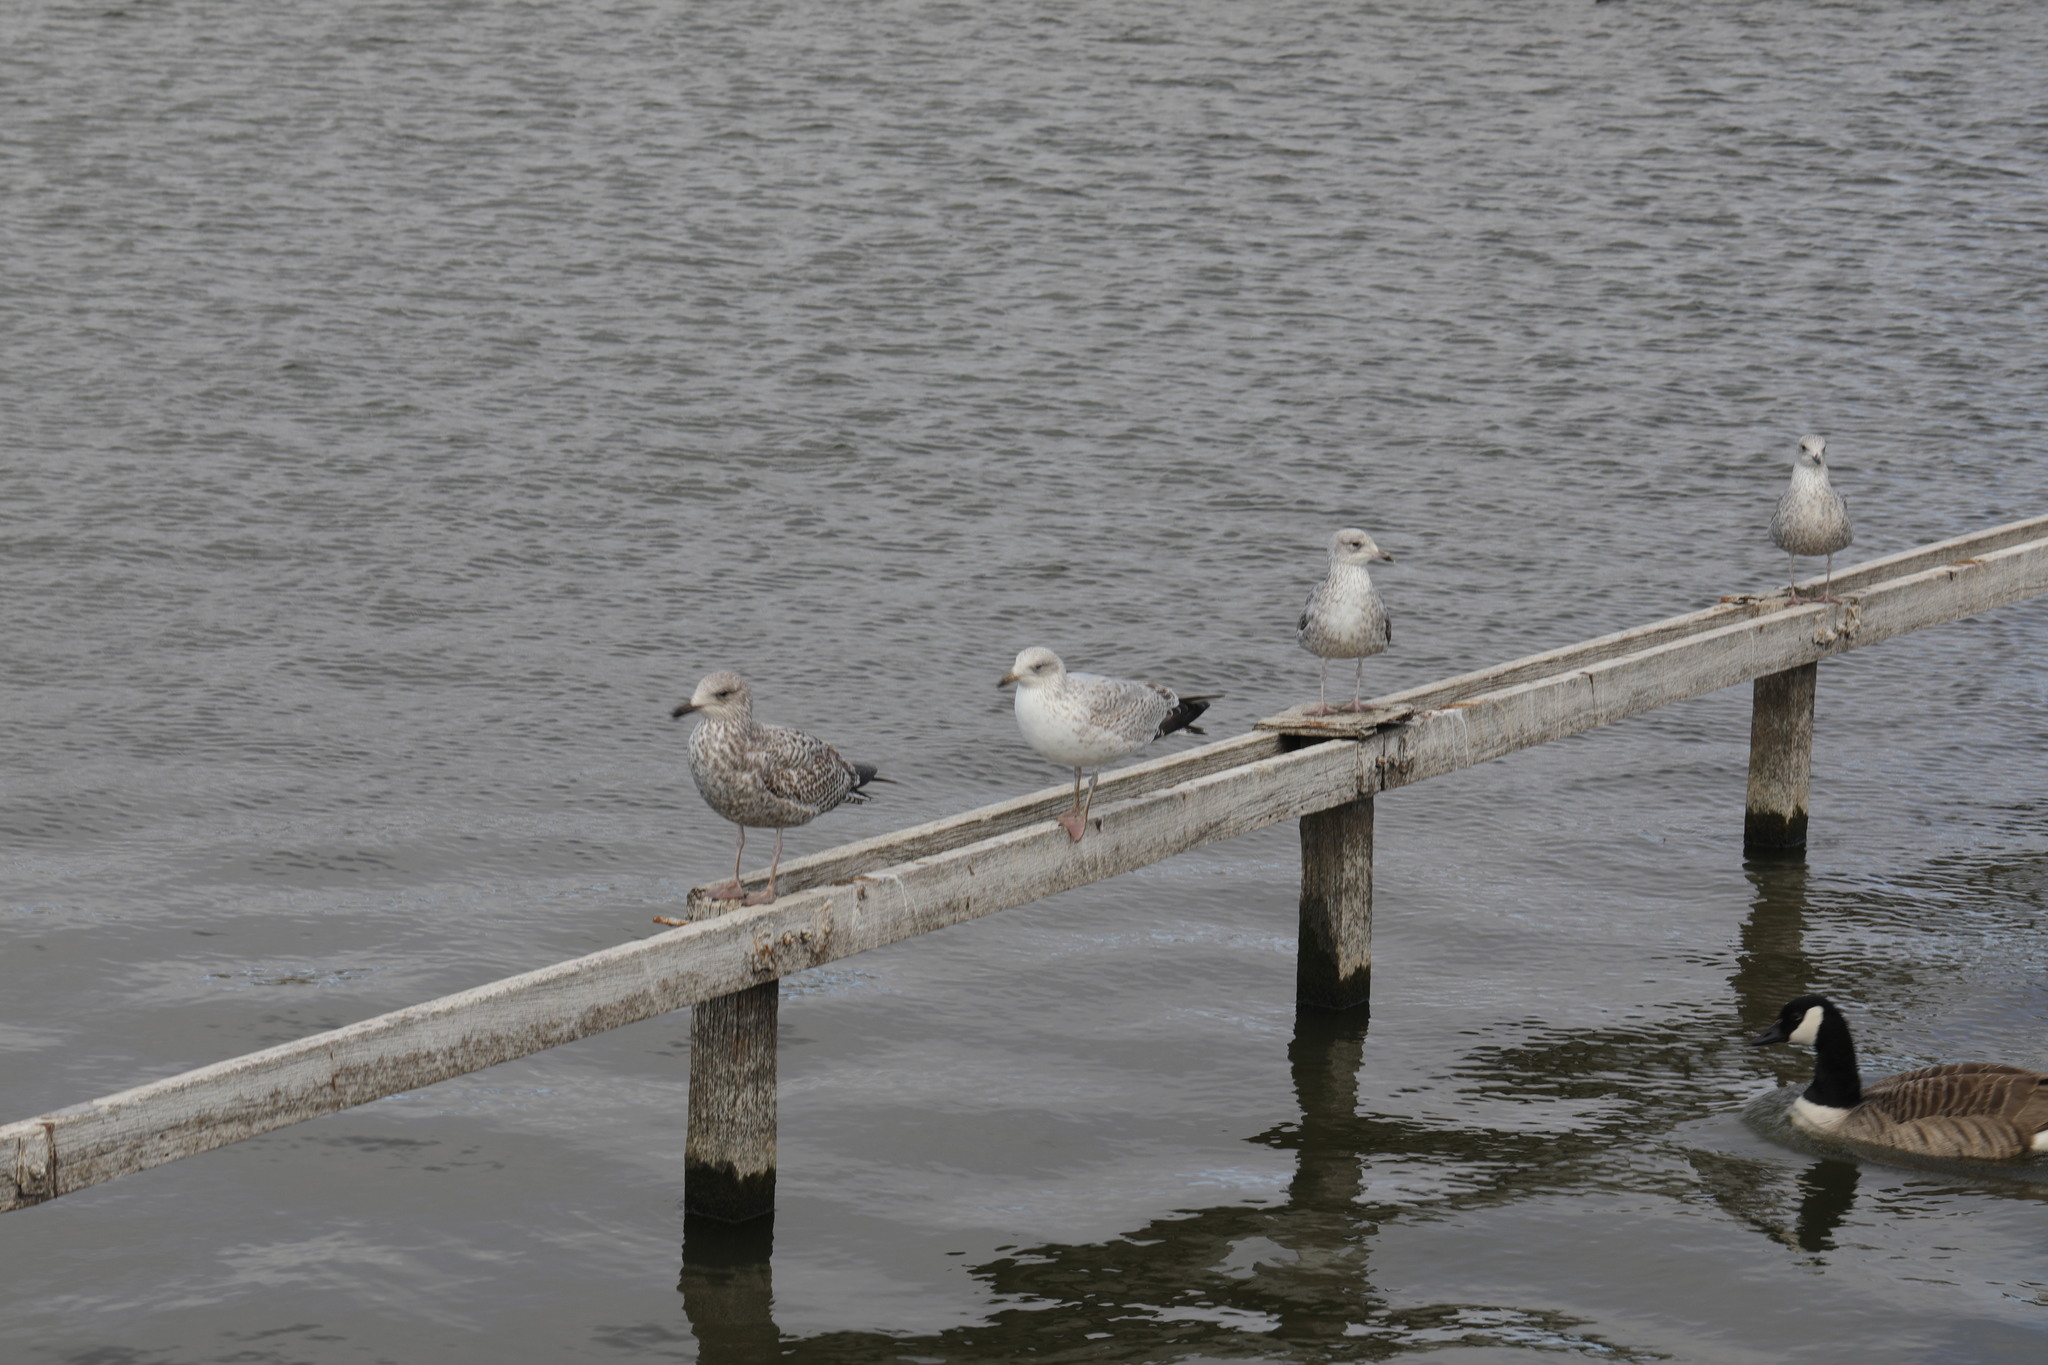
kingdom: Animalia
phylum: Chordata
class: Aves
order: Charadriiformes
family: Laridae
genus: Larus
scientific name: Larus argentatus
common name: Herring gull
